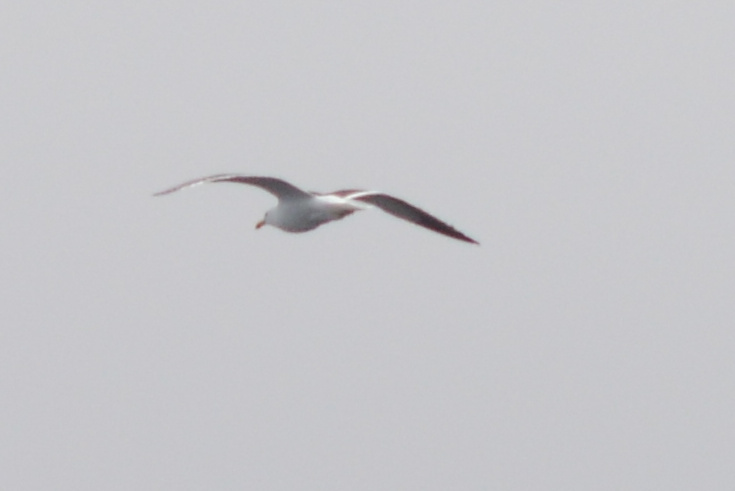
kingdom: Animalia
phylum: Chordata
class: Aves
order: Charadriiformes
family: Laridae
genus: Larus
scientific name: Larus dominicanus
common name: Kelp gull
